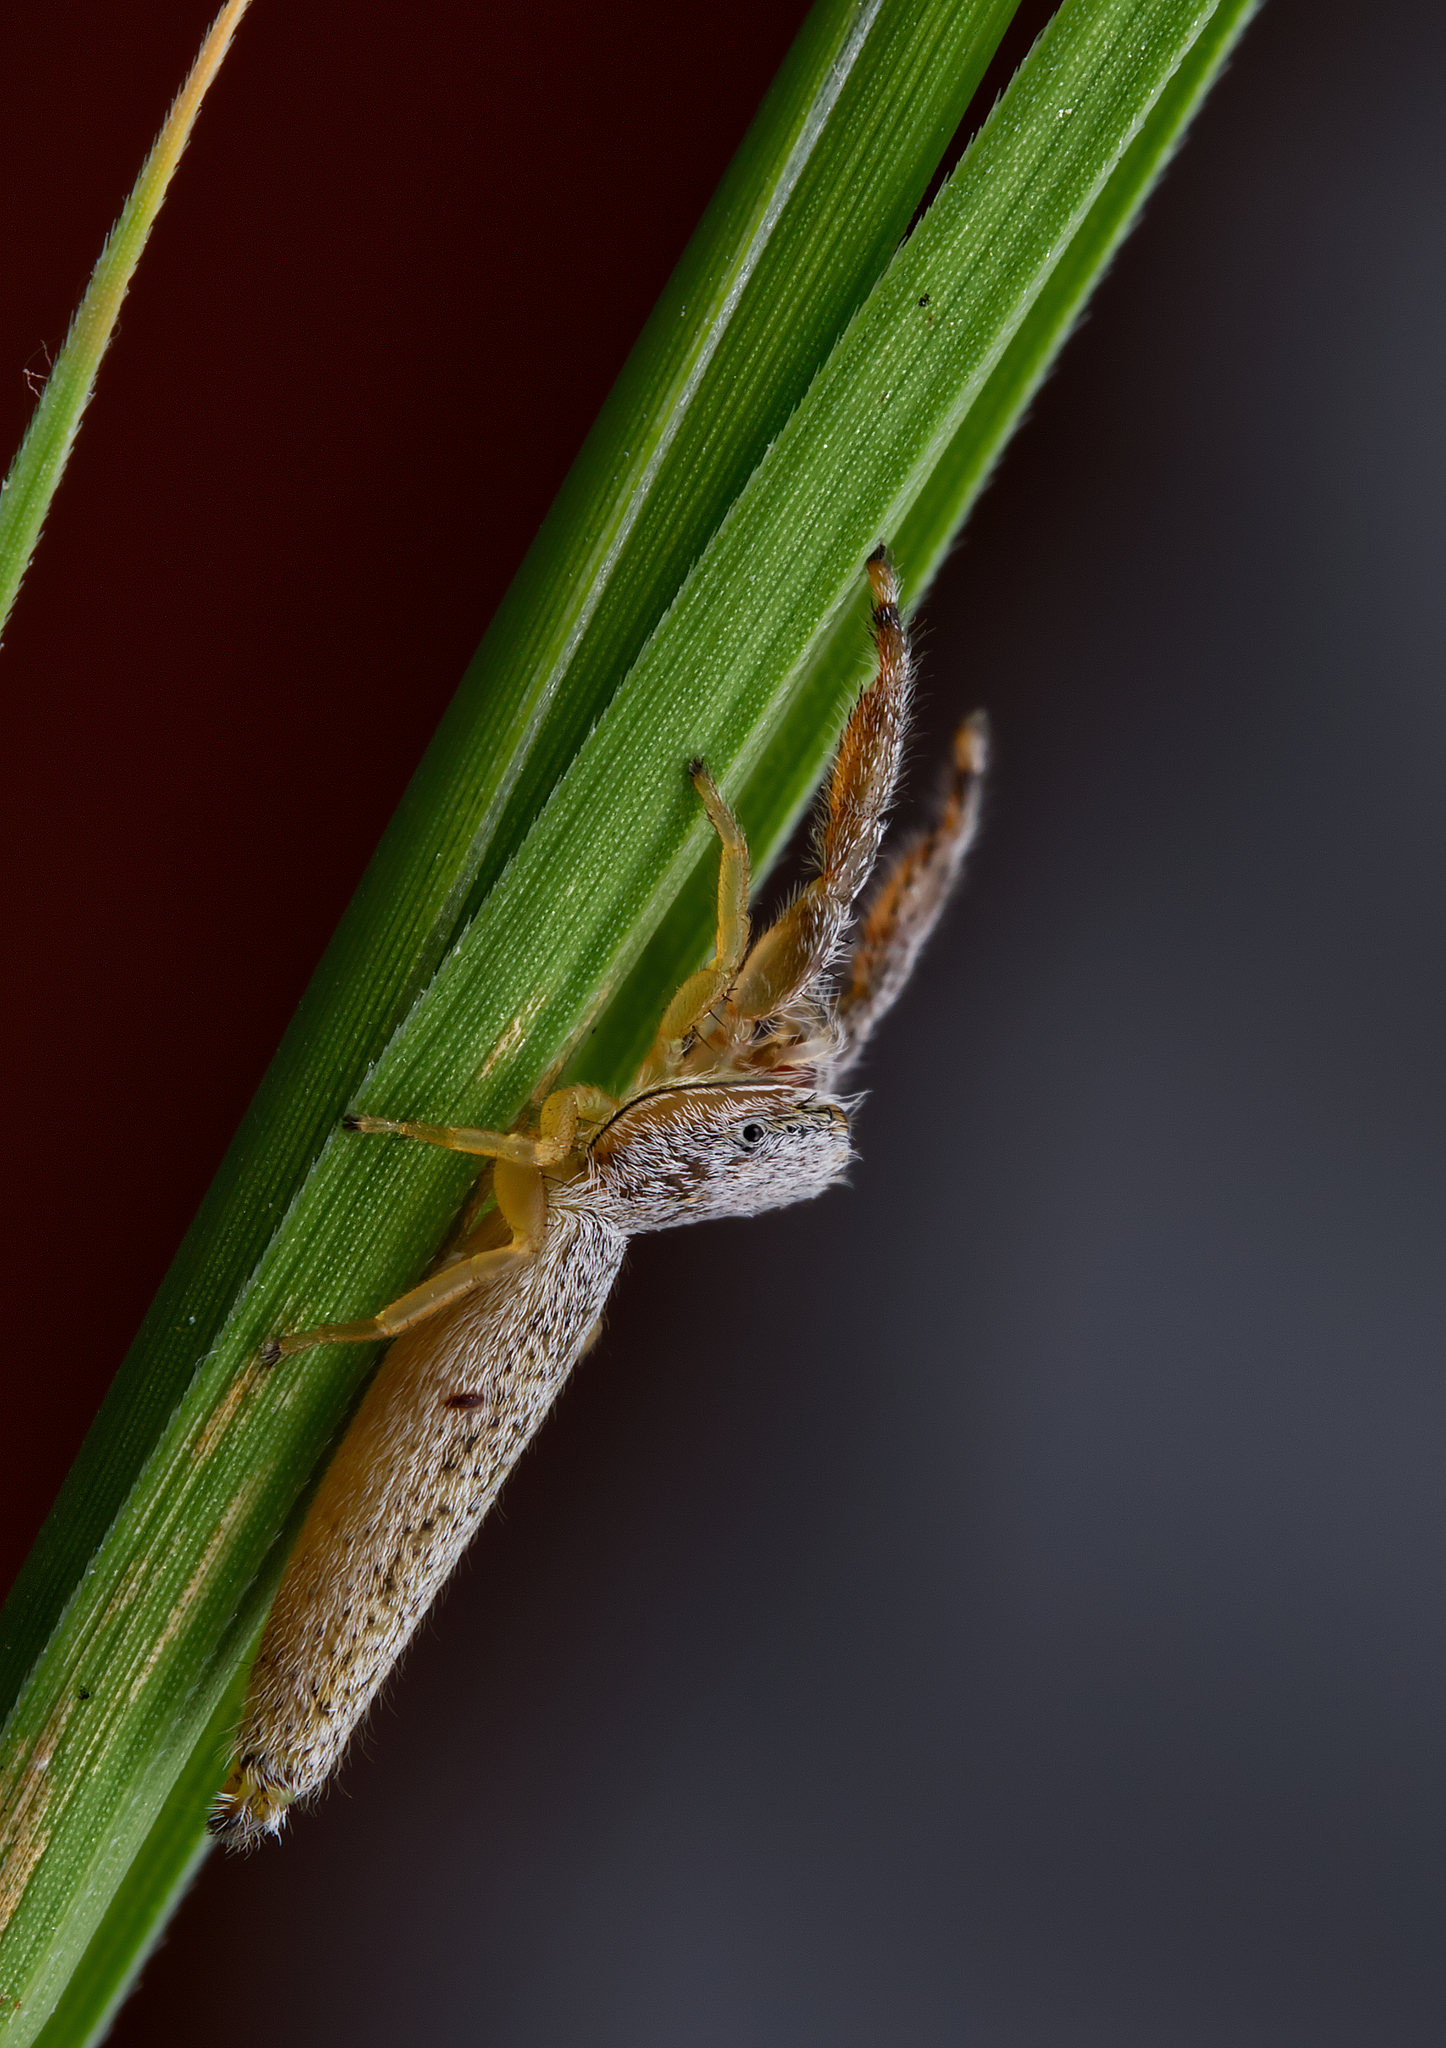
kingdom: Animalia
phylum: Arthropoda
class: Arachnida
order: Araneae
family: Salticidae
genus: Marpissa
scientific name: Marpissa pikei
